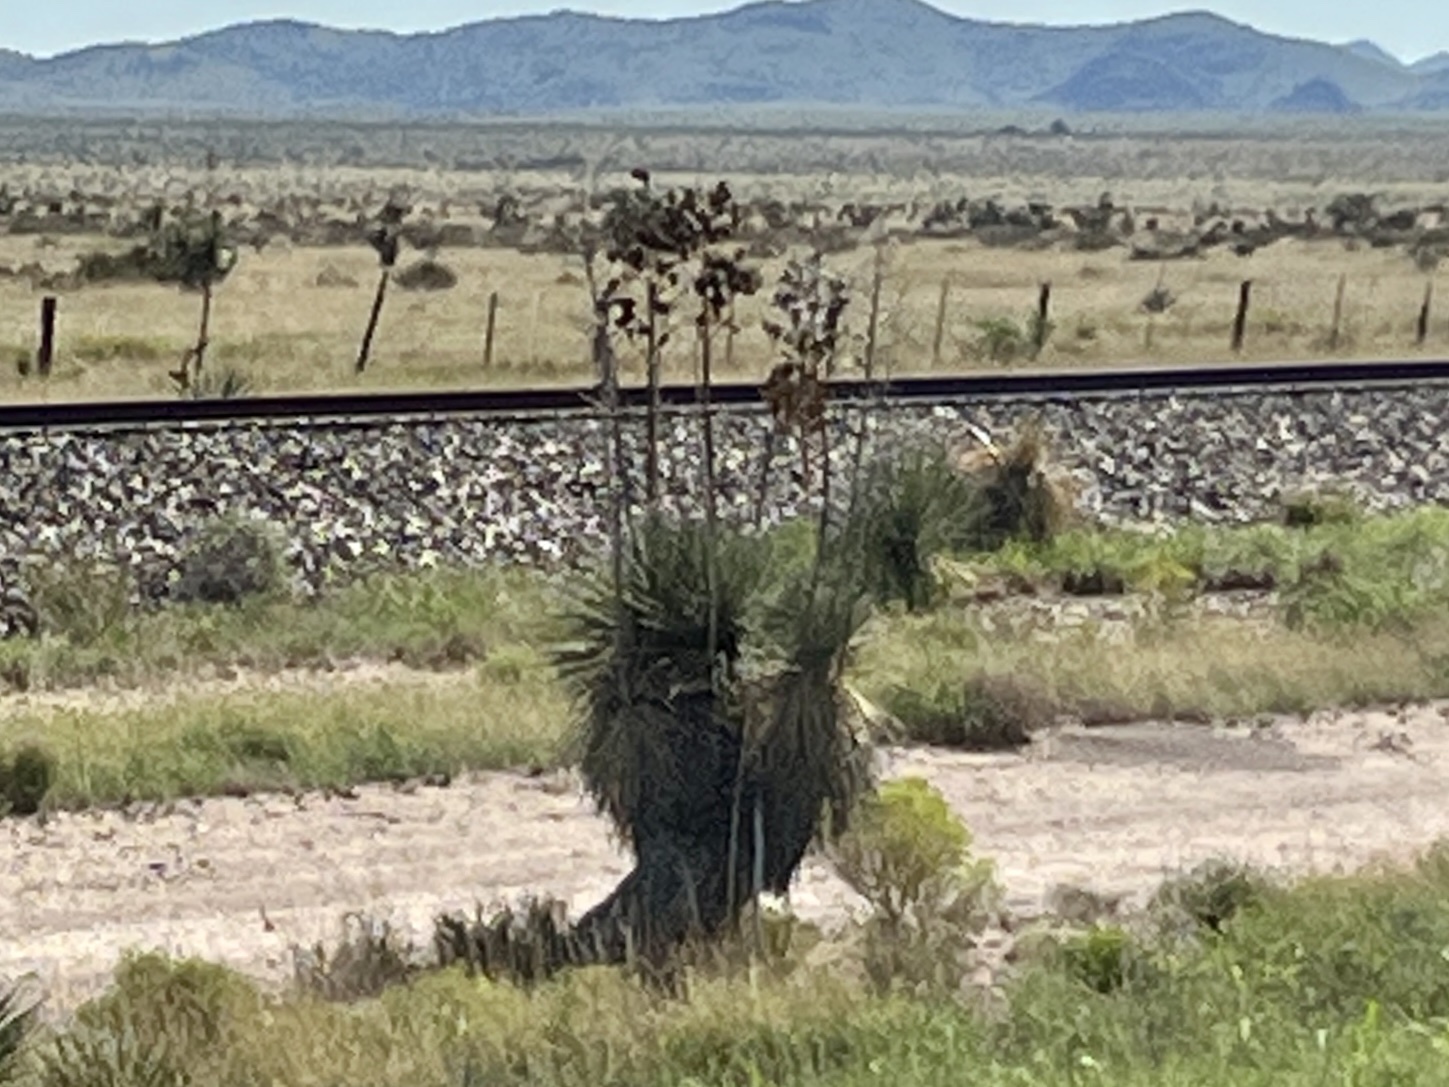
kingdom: Plantae
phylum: Tracheophyta
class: Liliopsida
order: Asparagales
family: Asparagaceae
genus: Yucca
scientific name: Yucca elata
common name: Palmella
